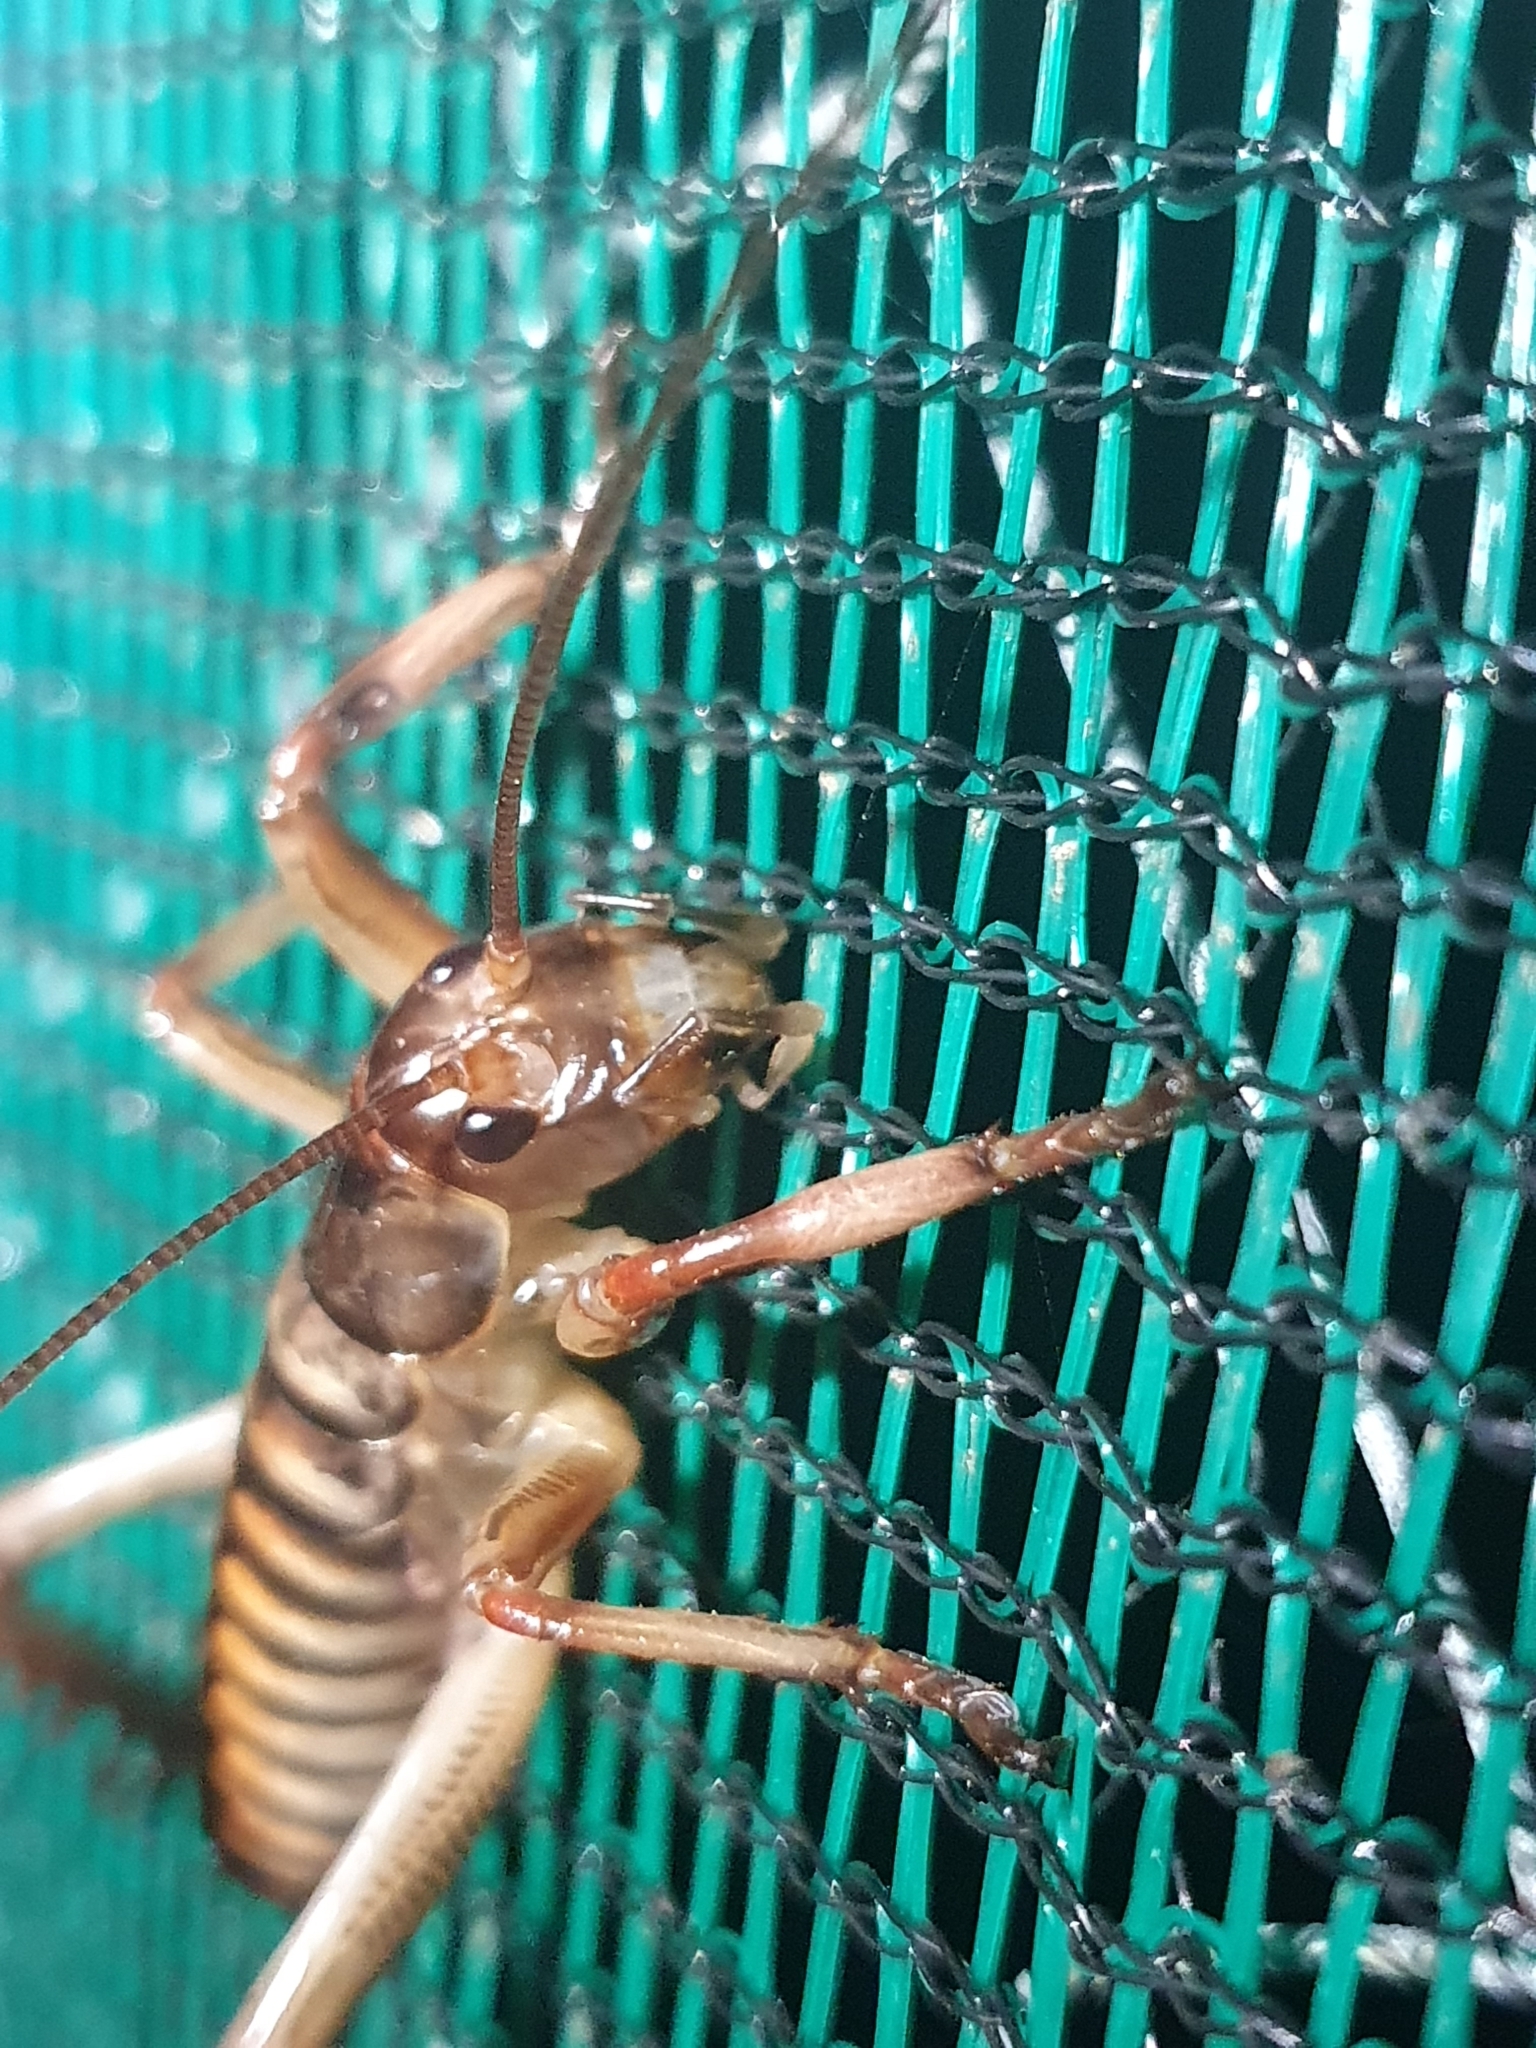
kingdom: Animalia
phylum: Arthropoda
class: Insecta
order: Orthoptera
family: Anostostomatidae
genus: Hemideina
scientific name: Hemideina crassidens
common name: Wellington tree weta
